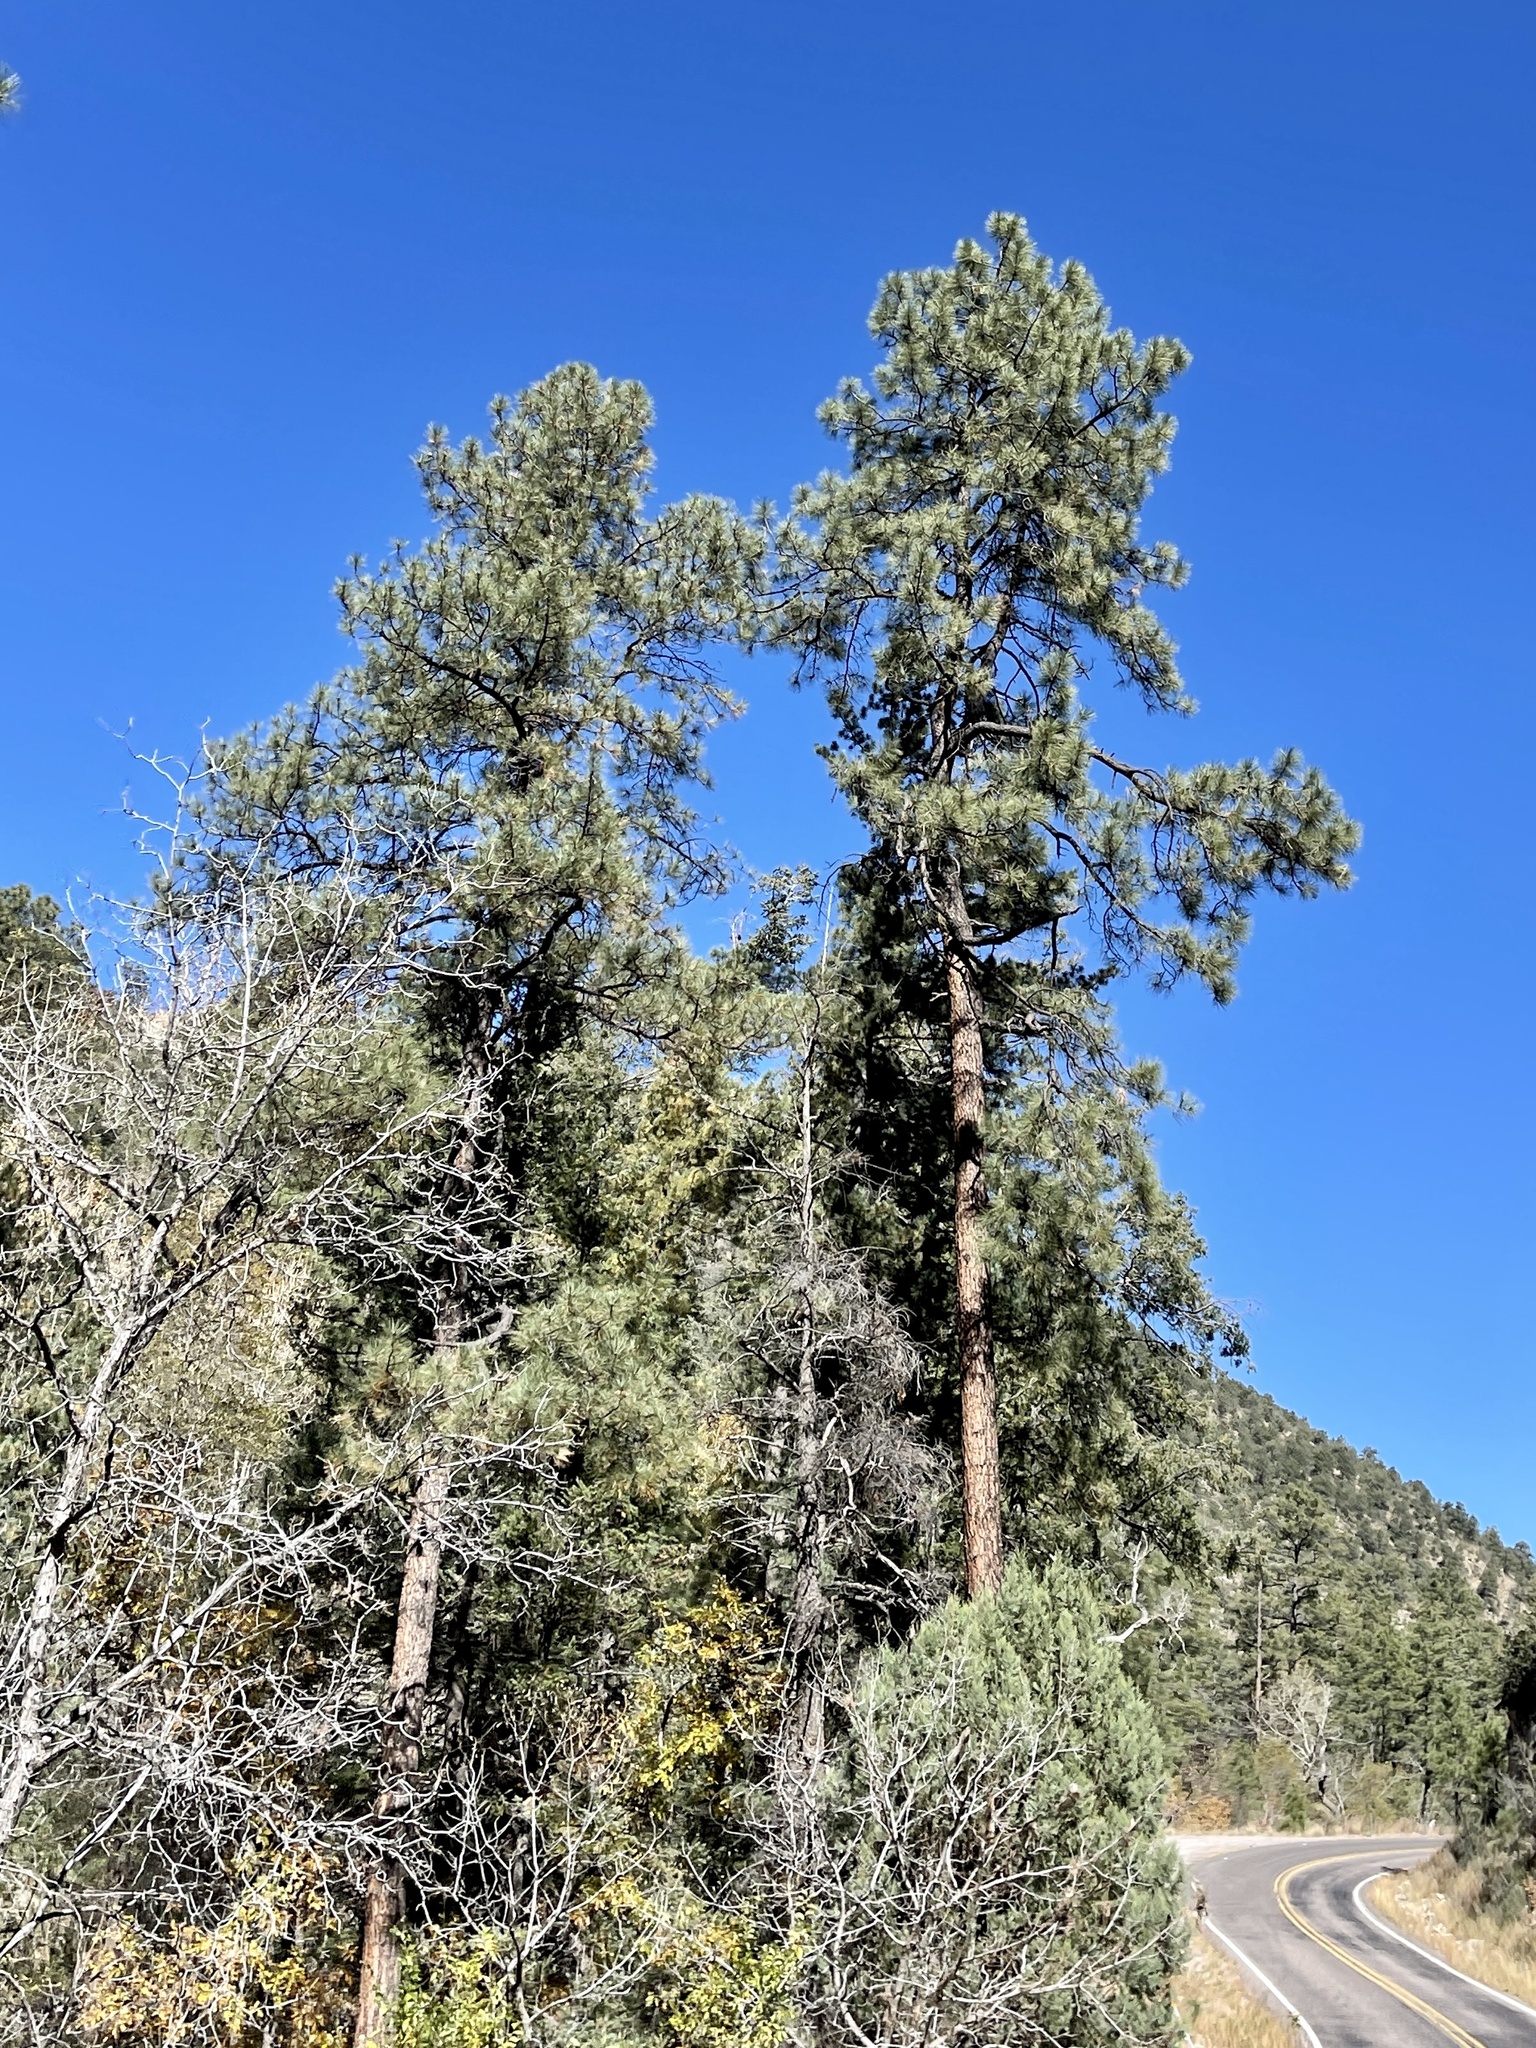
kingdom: Plantae
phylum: Tracheophyta
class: Pinopsida
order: Pinales
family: Pinaceae
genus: Pinus
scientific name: Pinus ponderosa
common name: Western yellow-pine
